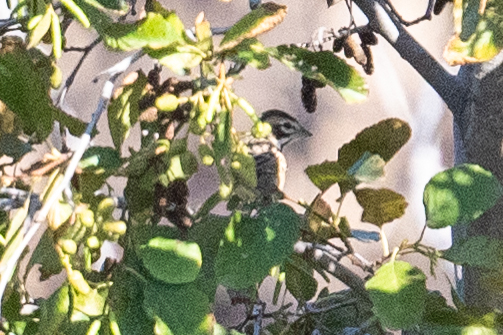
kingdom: Animalia
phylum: Chordata
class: Aves
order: Passeriformes
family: Passerellidae
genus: Chondestes
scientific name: Chondestes grammacus
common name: Lark sparrow
